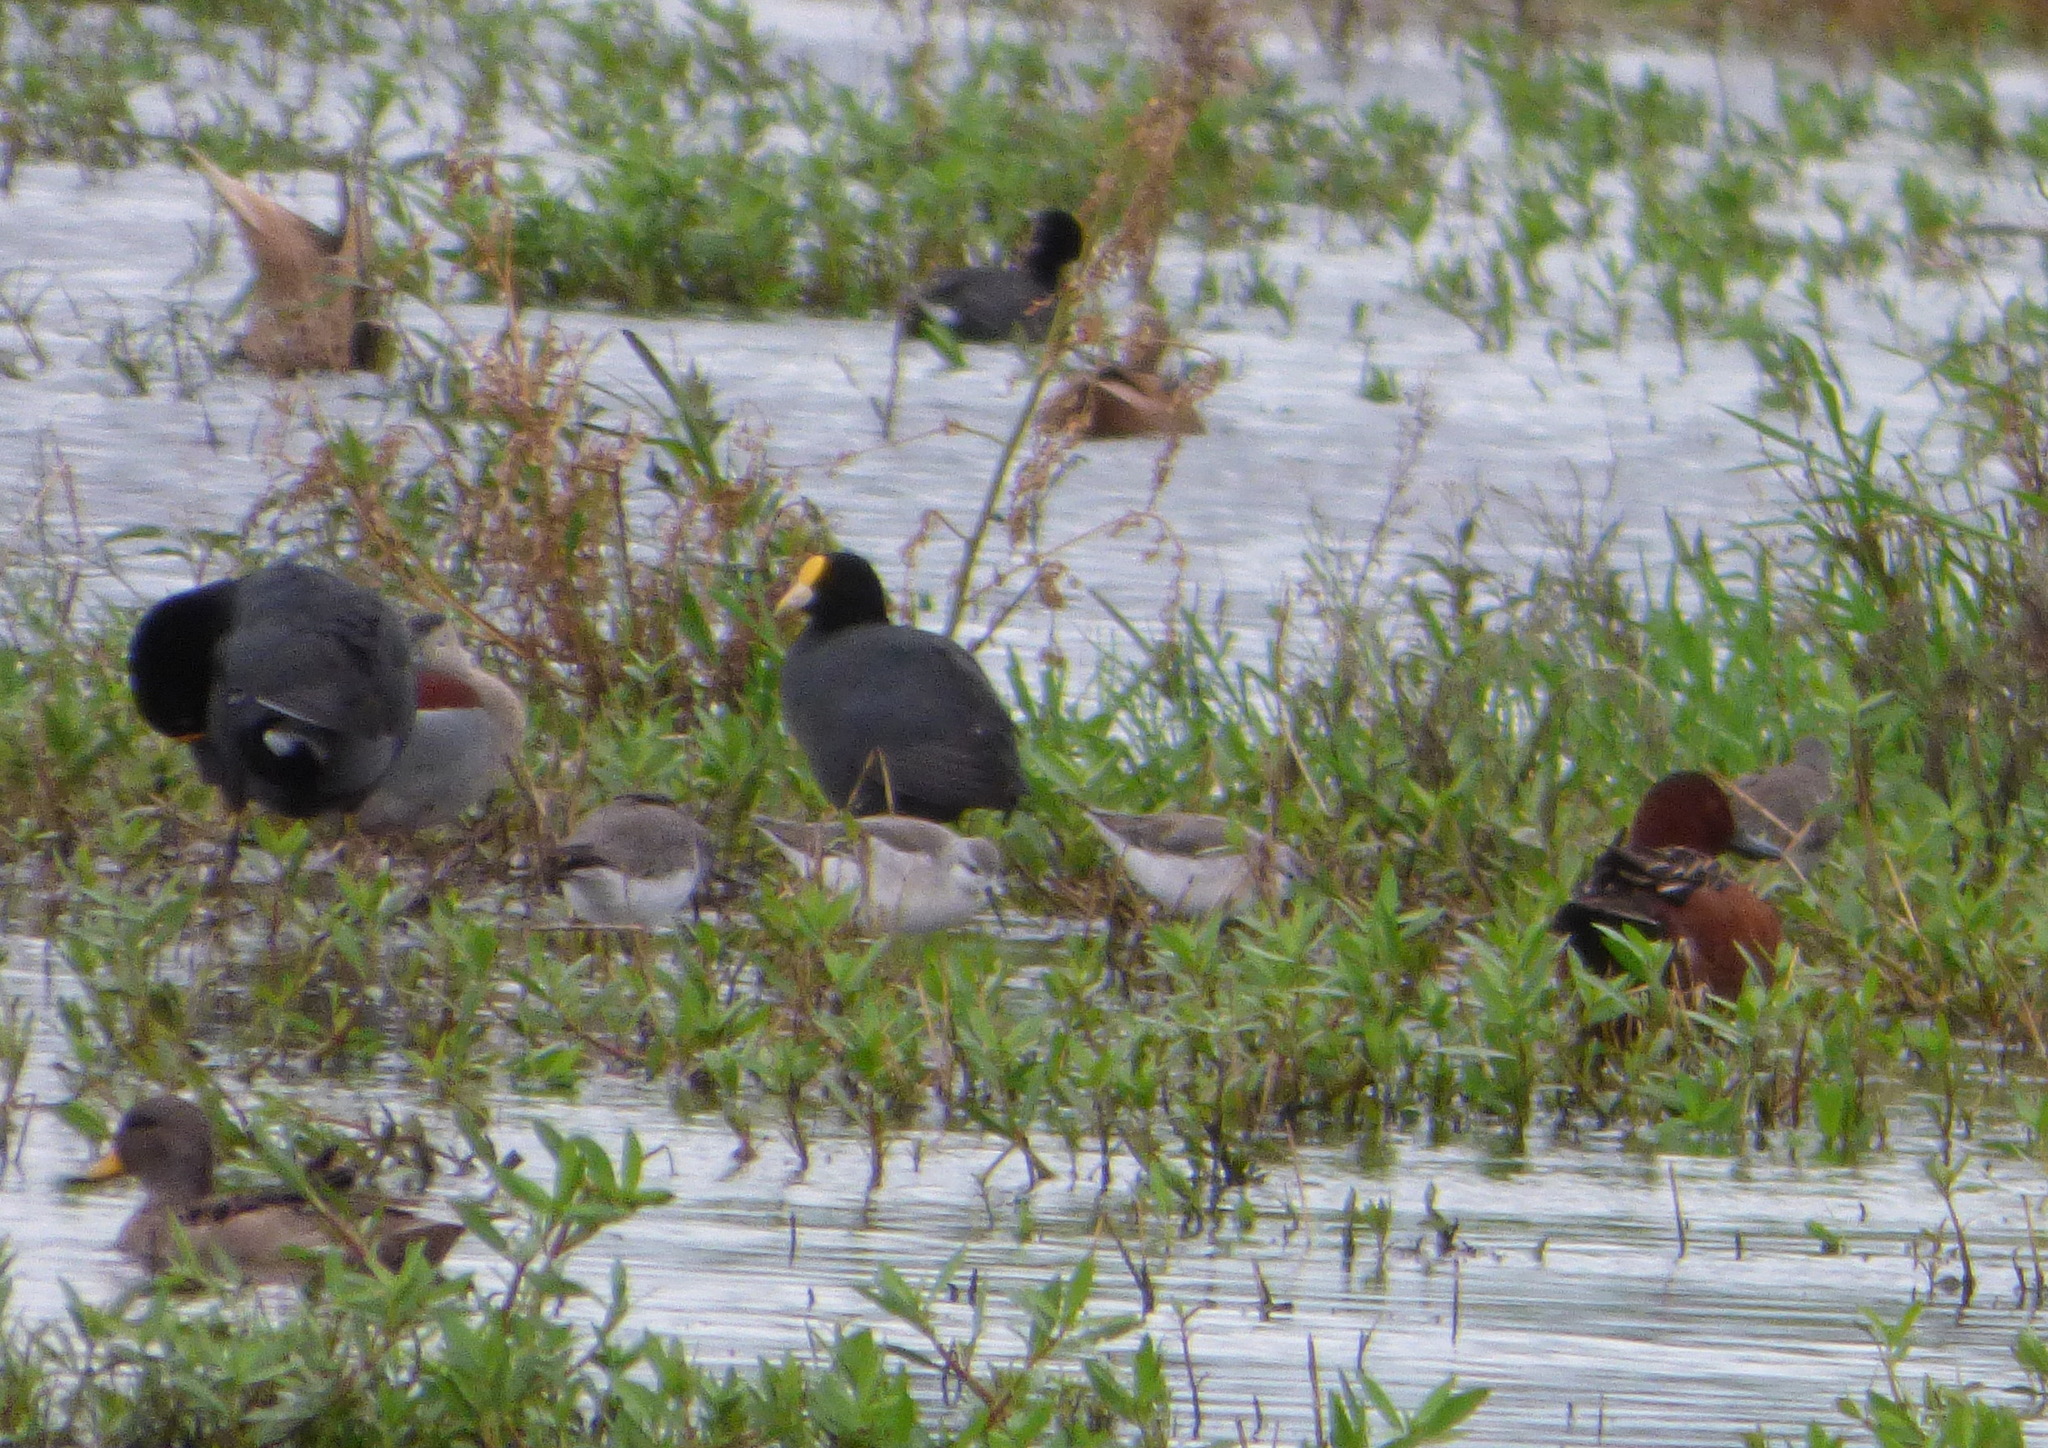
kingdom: Animalia
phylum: Chordata
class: Aves
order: Gruiformes
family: Rallidae
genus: Fulica
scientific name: Fulica leucoptera
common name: White-winged coot
